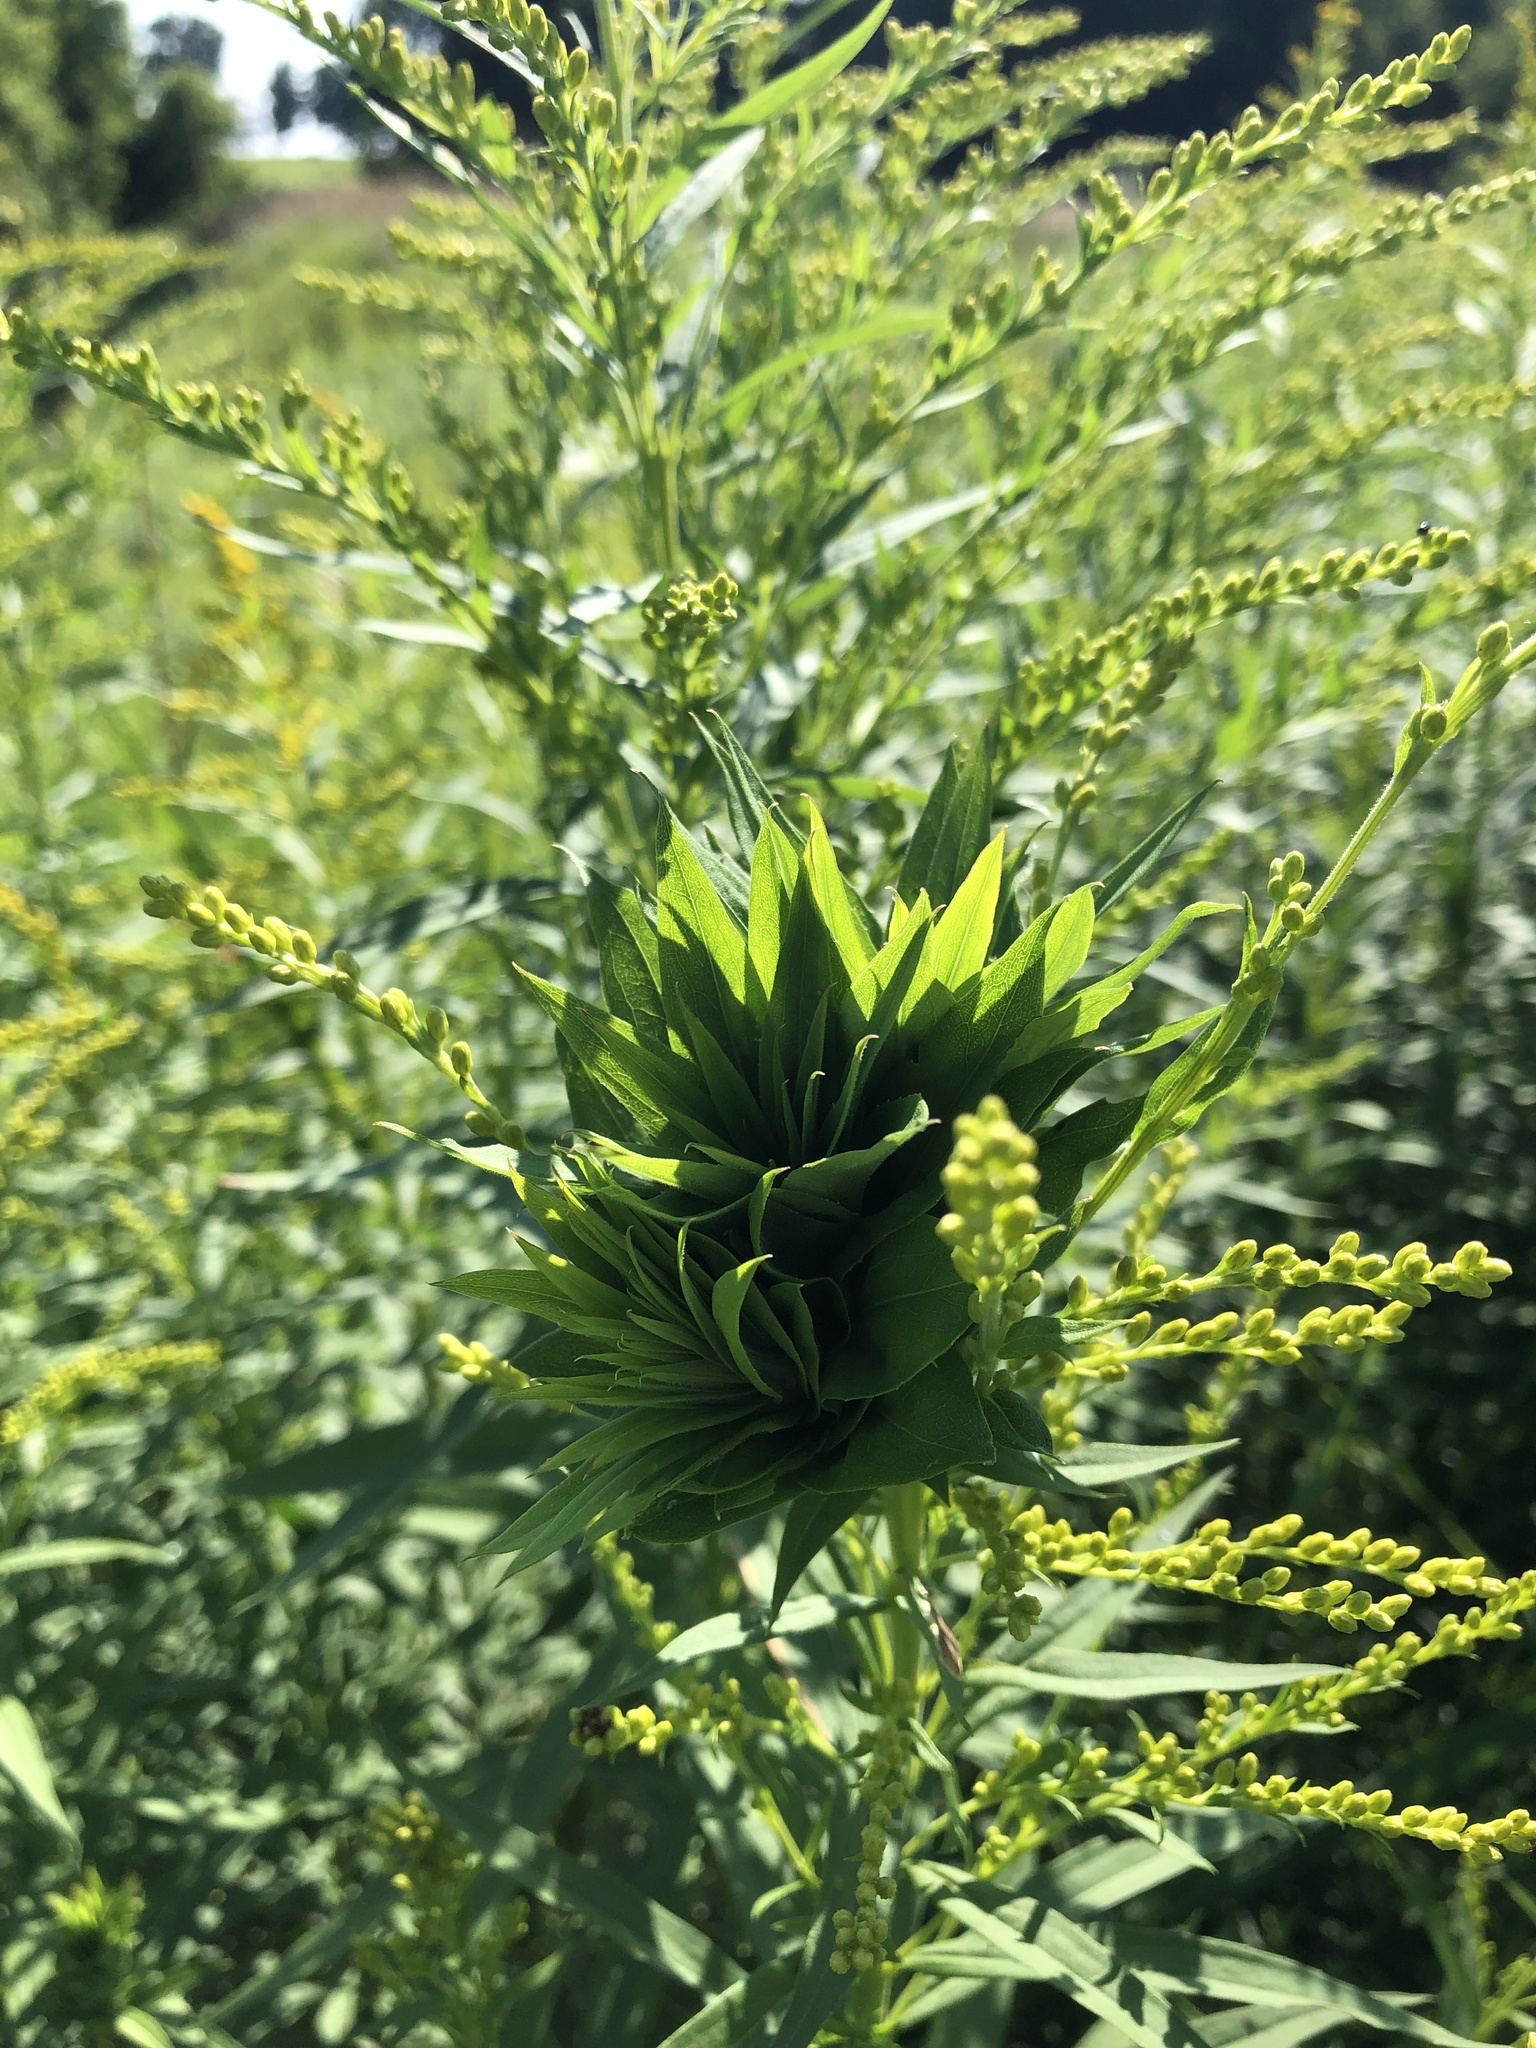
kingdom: Animalia
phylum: Arthropoda
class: Insecta
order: Diptera
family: Cecidomyiidae
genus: Rhopalomyia
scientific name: Rhopalomyia solidaginis
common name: Goldenrod bunch gall midge
